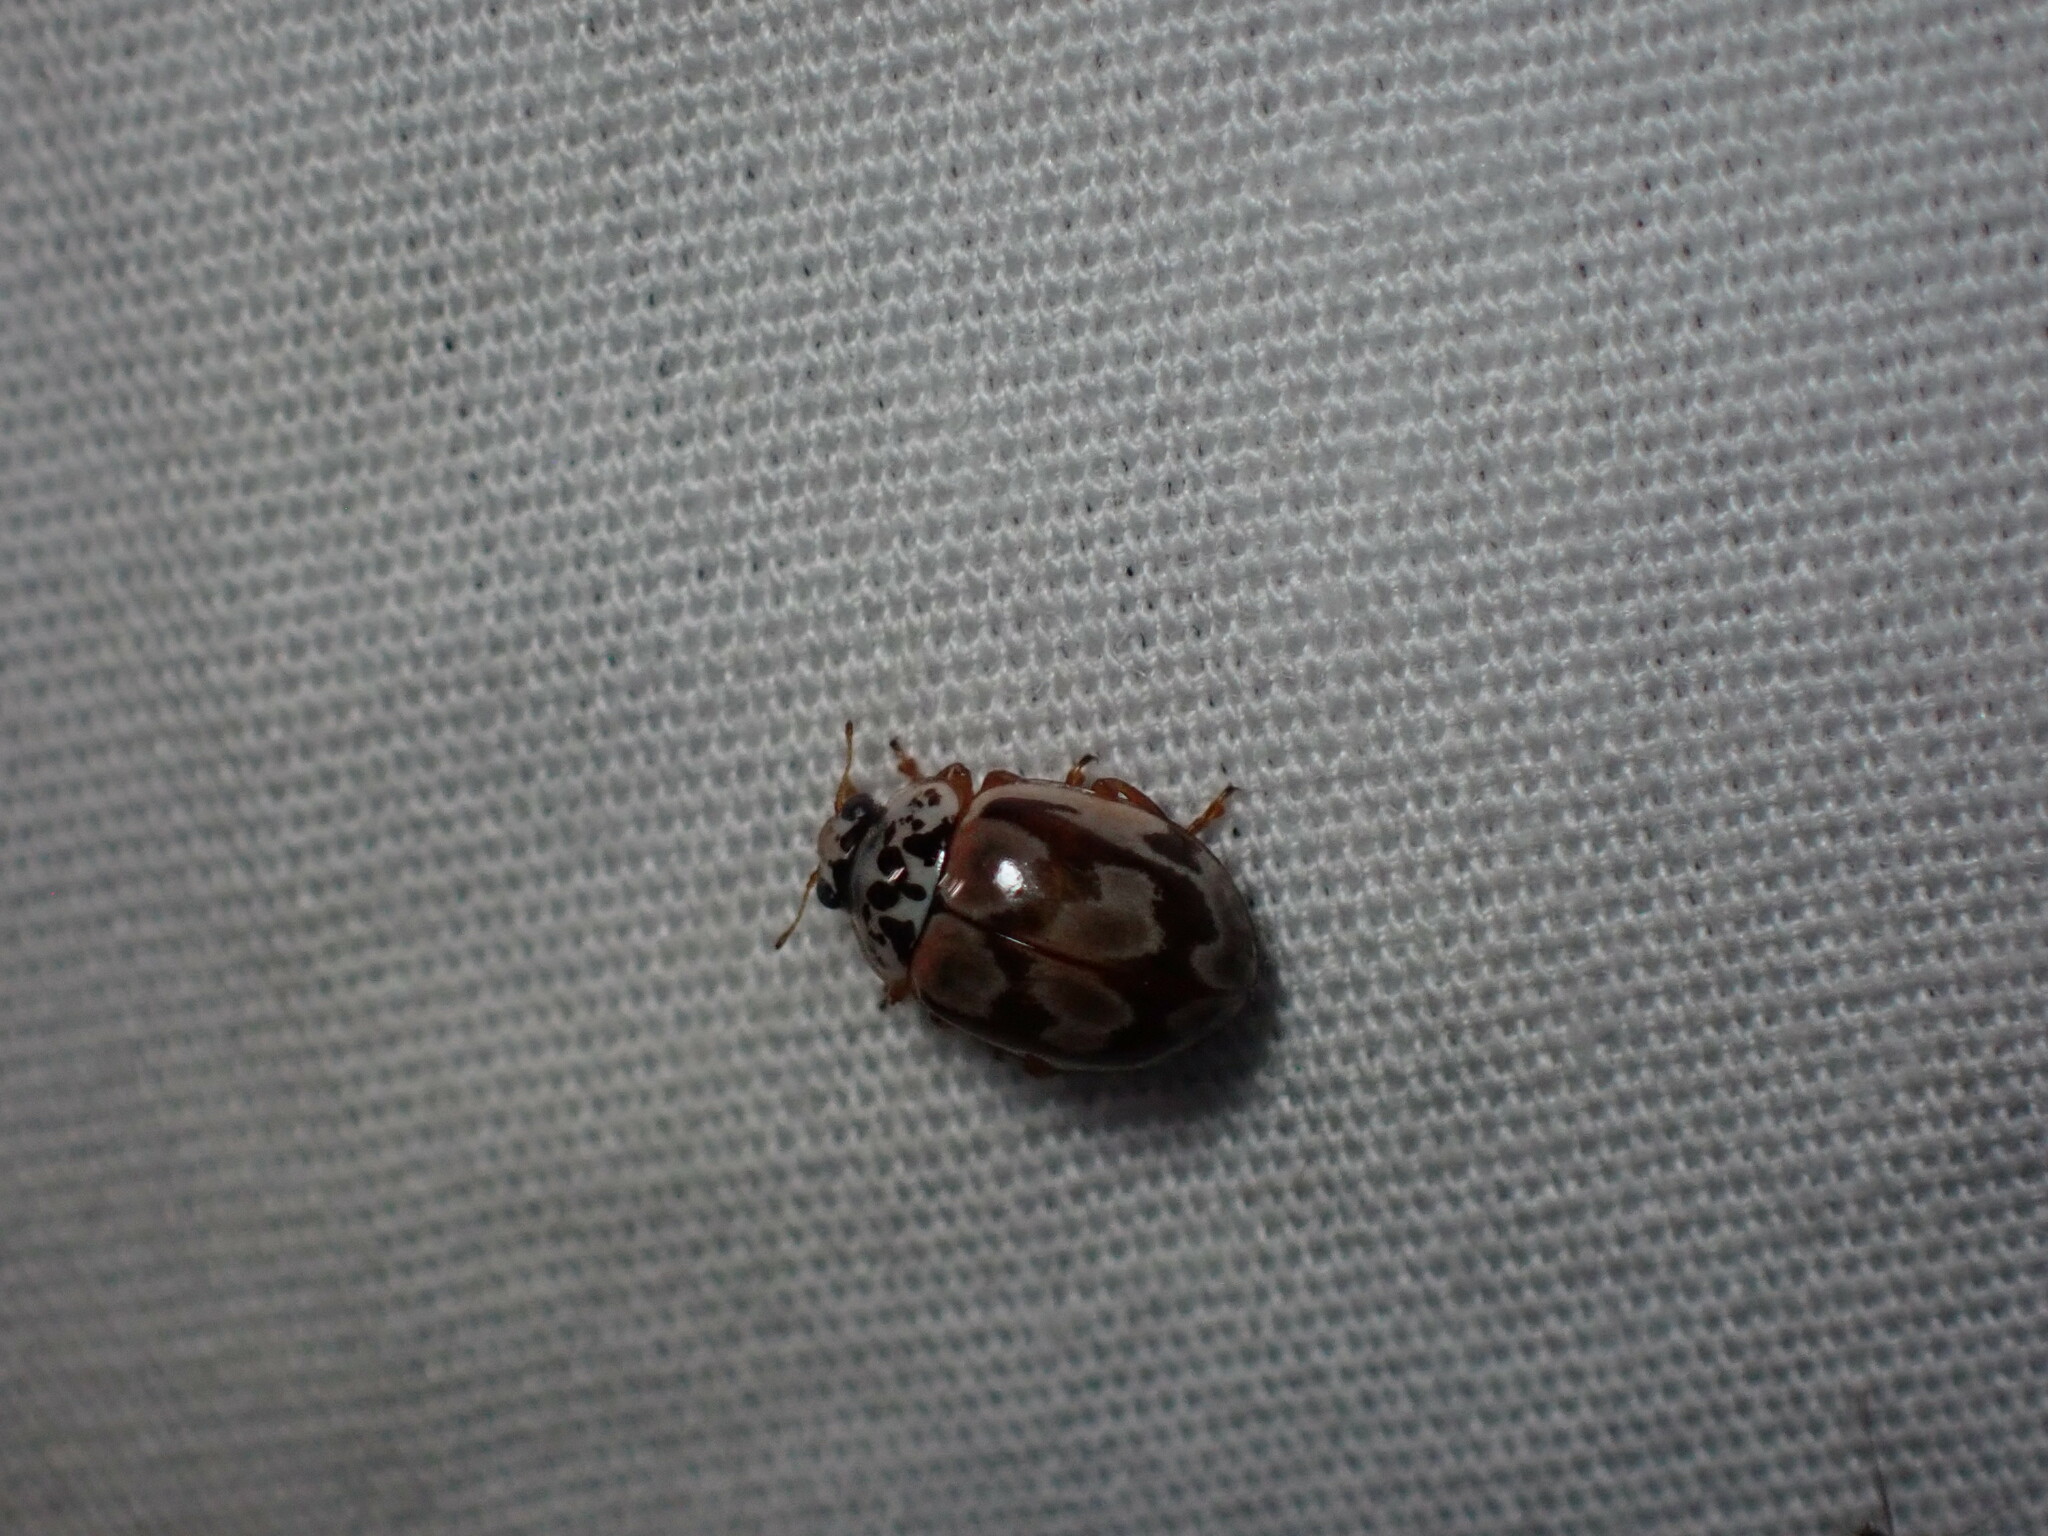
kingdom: Animalia
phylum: Arthropoda
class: Insecta
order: Coleoptera
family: Coccinellidae
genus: Mulsantina
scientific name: Mulsantina picta
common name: Painted ladybird
